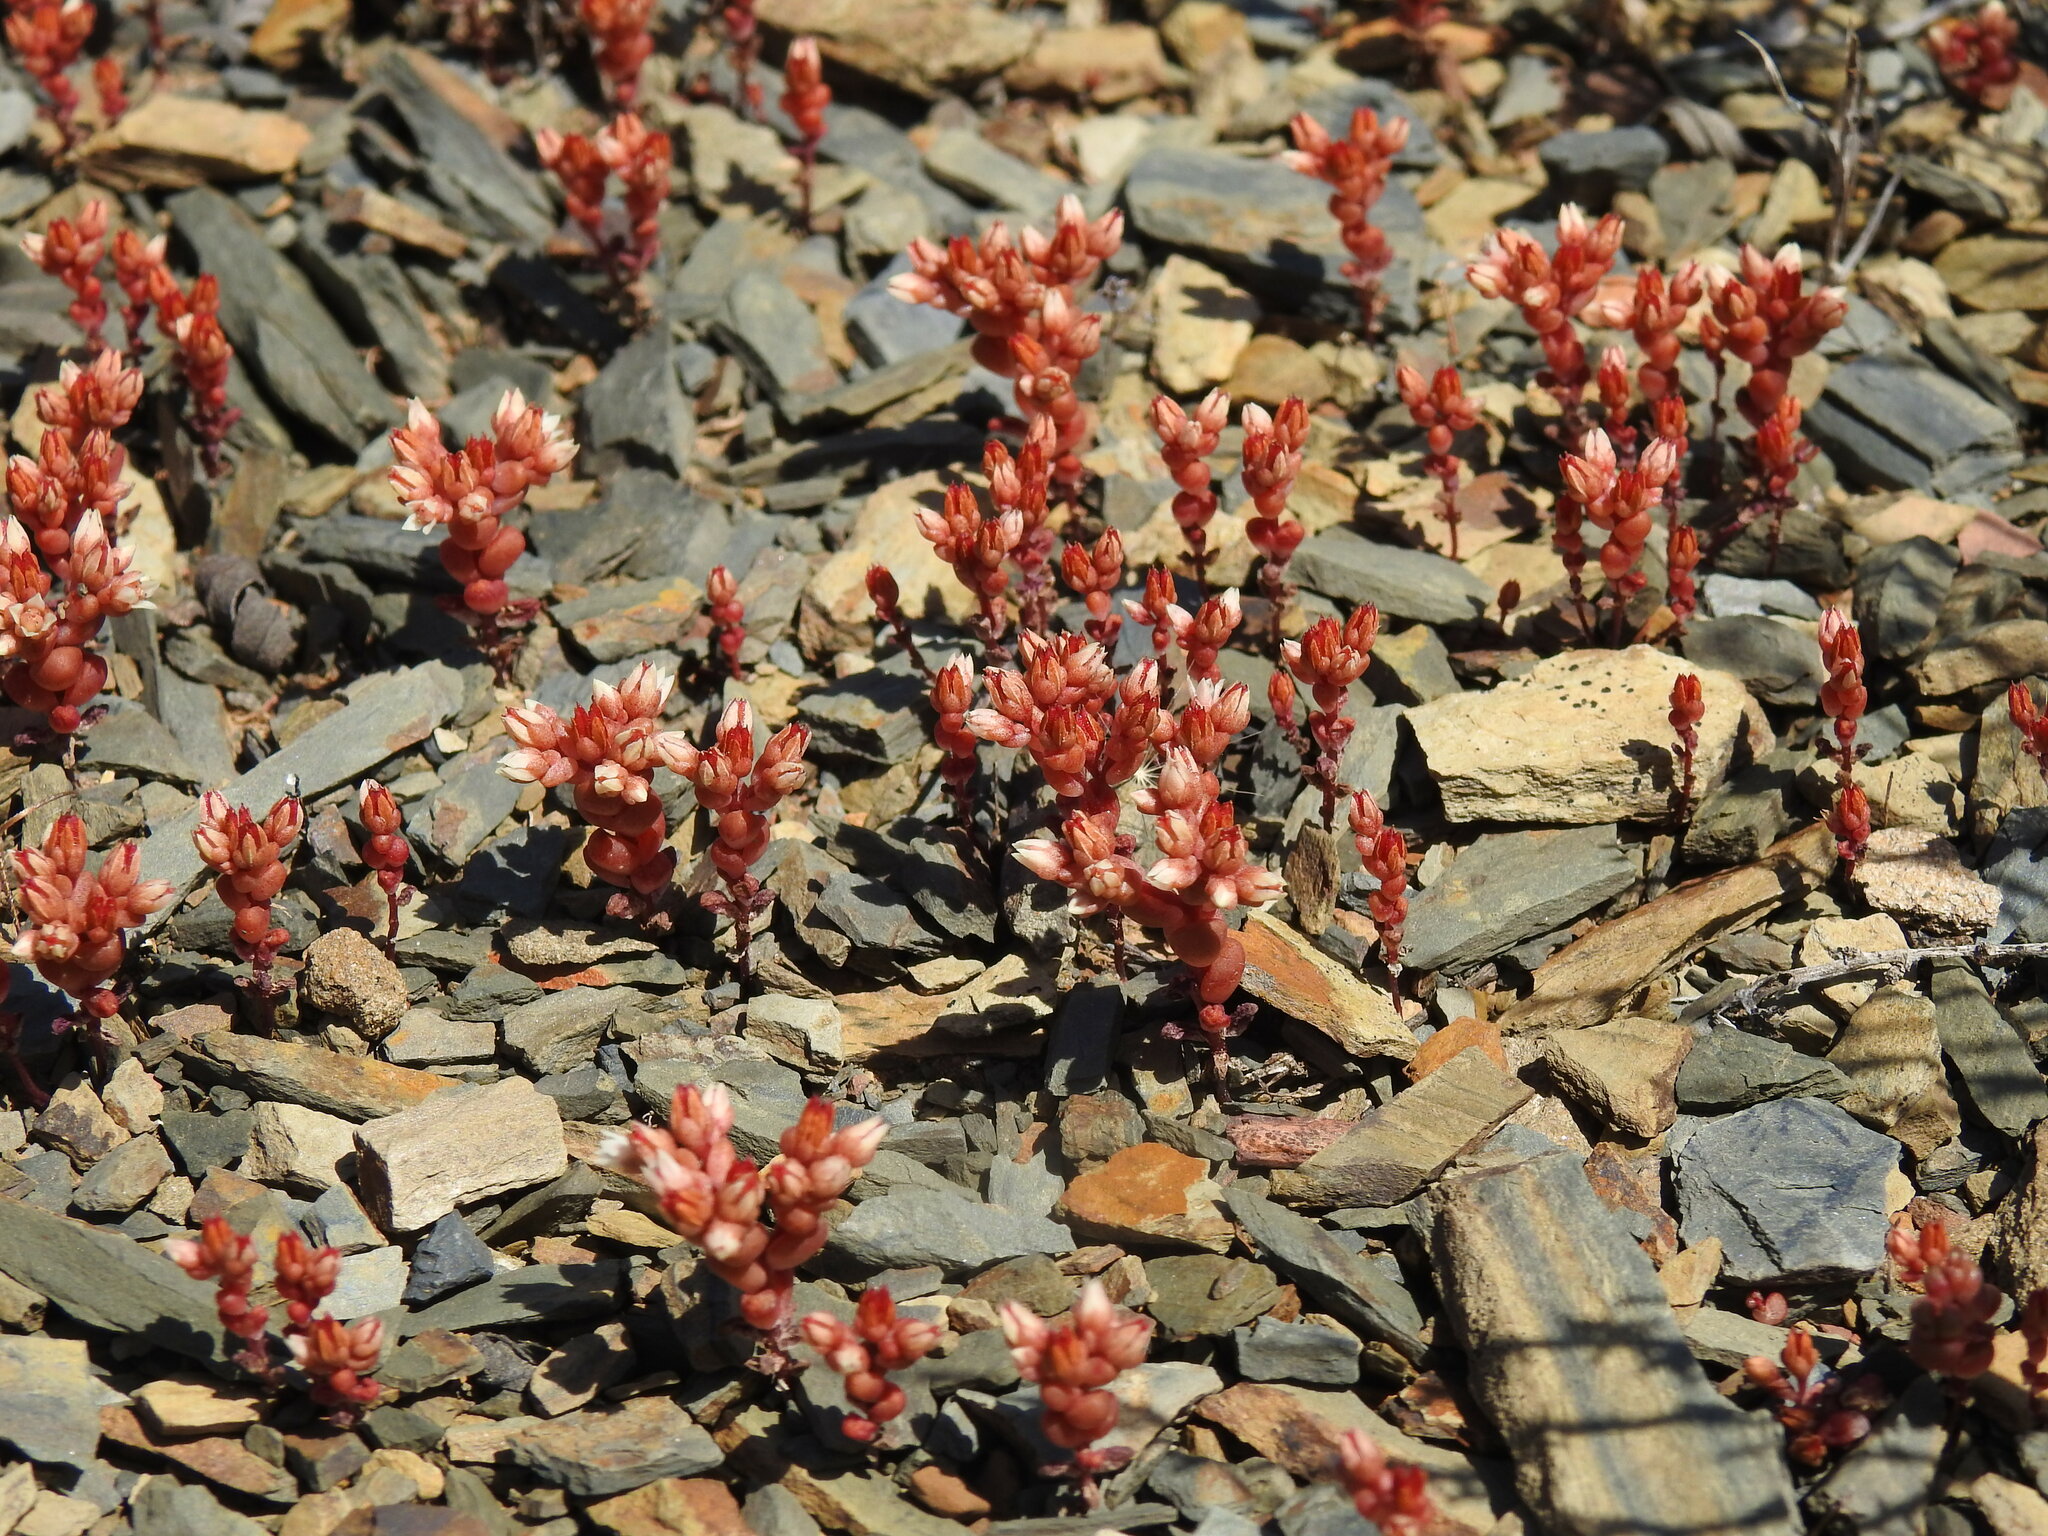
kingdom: Plantae
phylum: Tracheophyta
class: Magnoliopsida
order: Saxifragales
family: Crassulaceae
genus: Sedum
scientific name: Sedum andegavense
